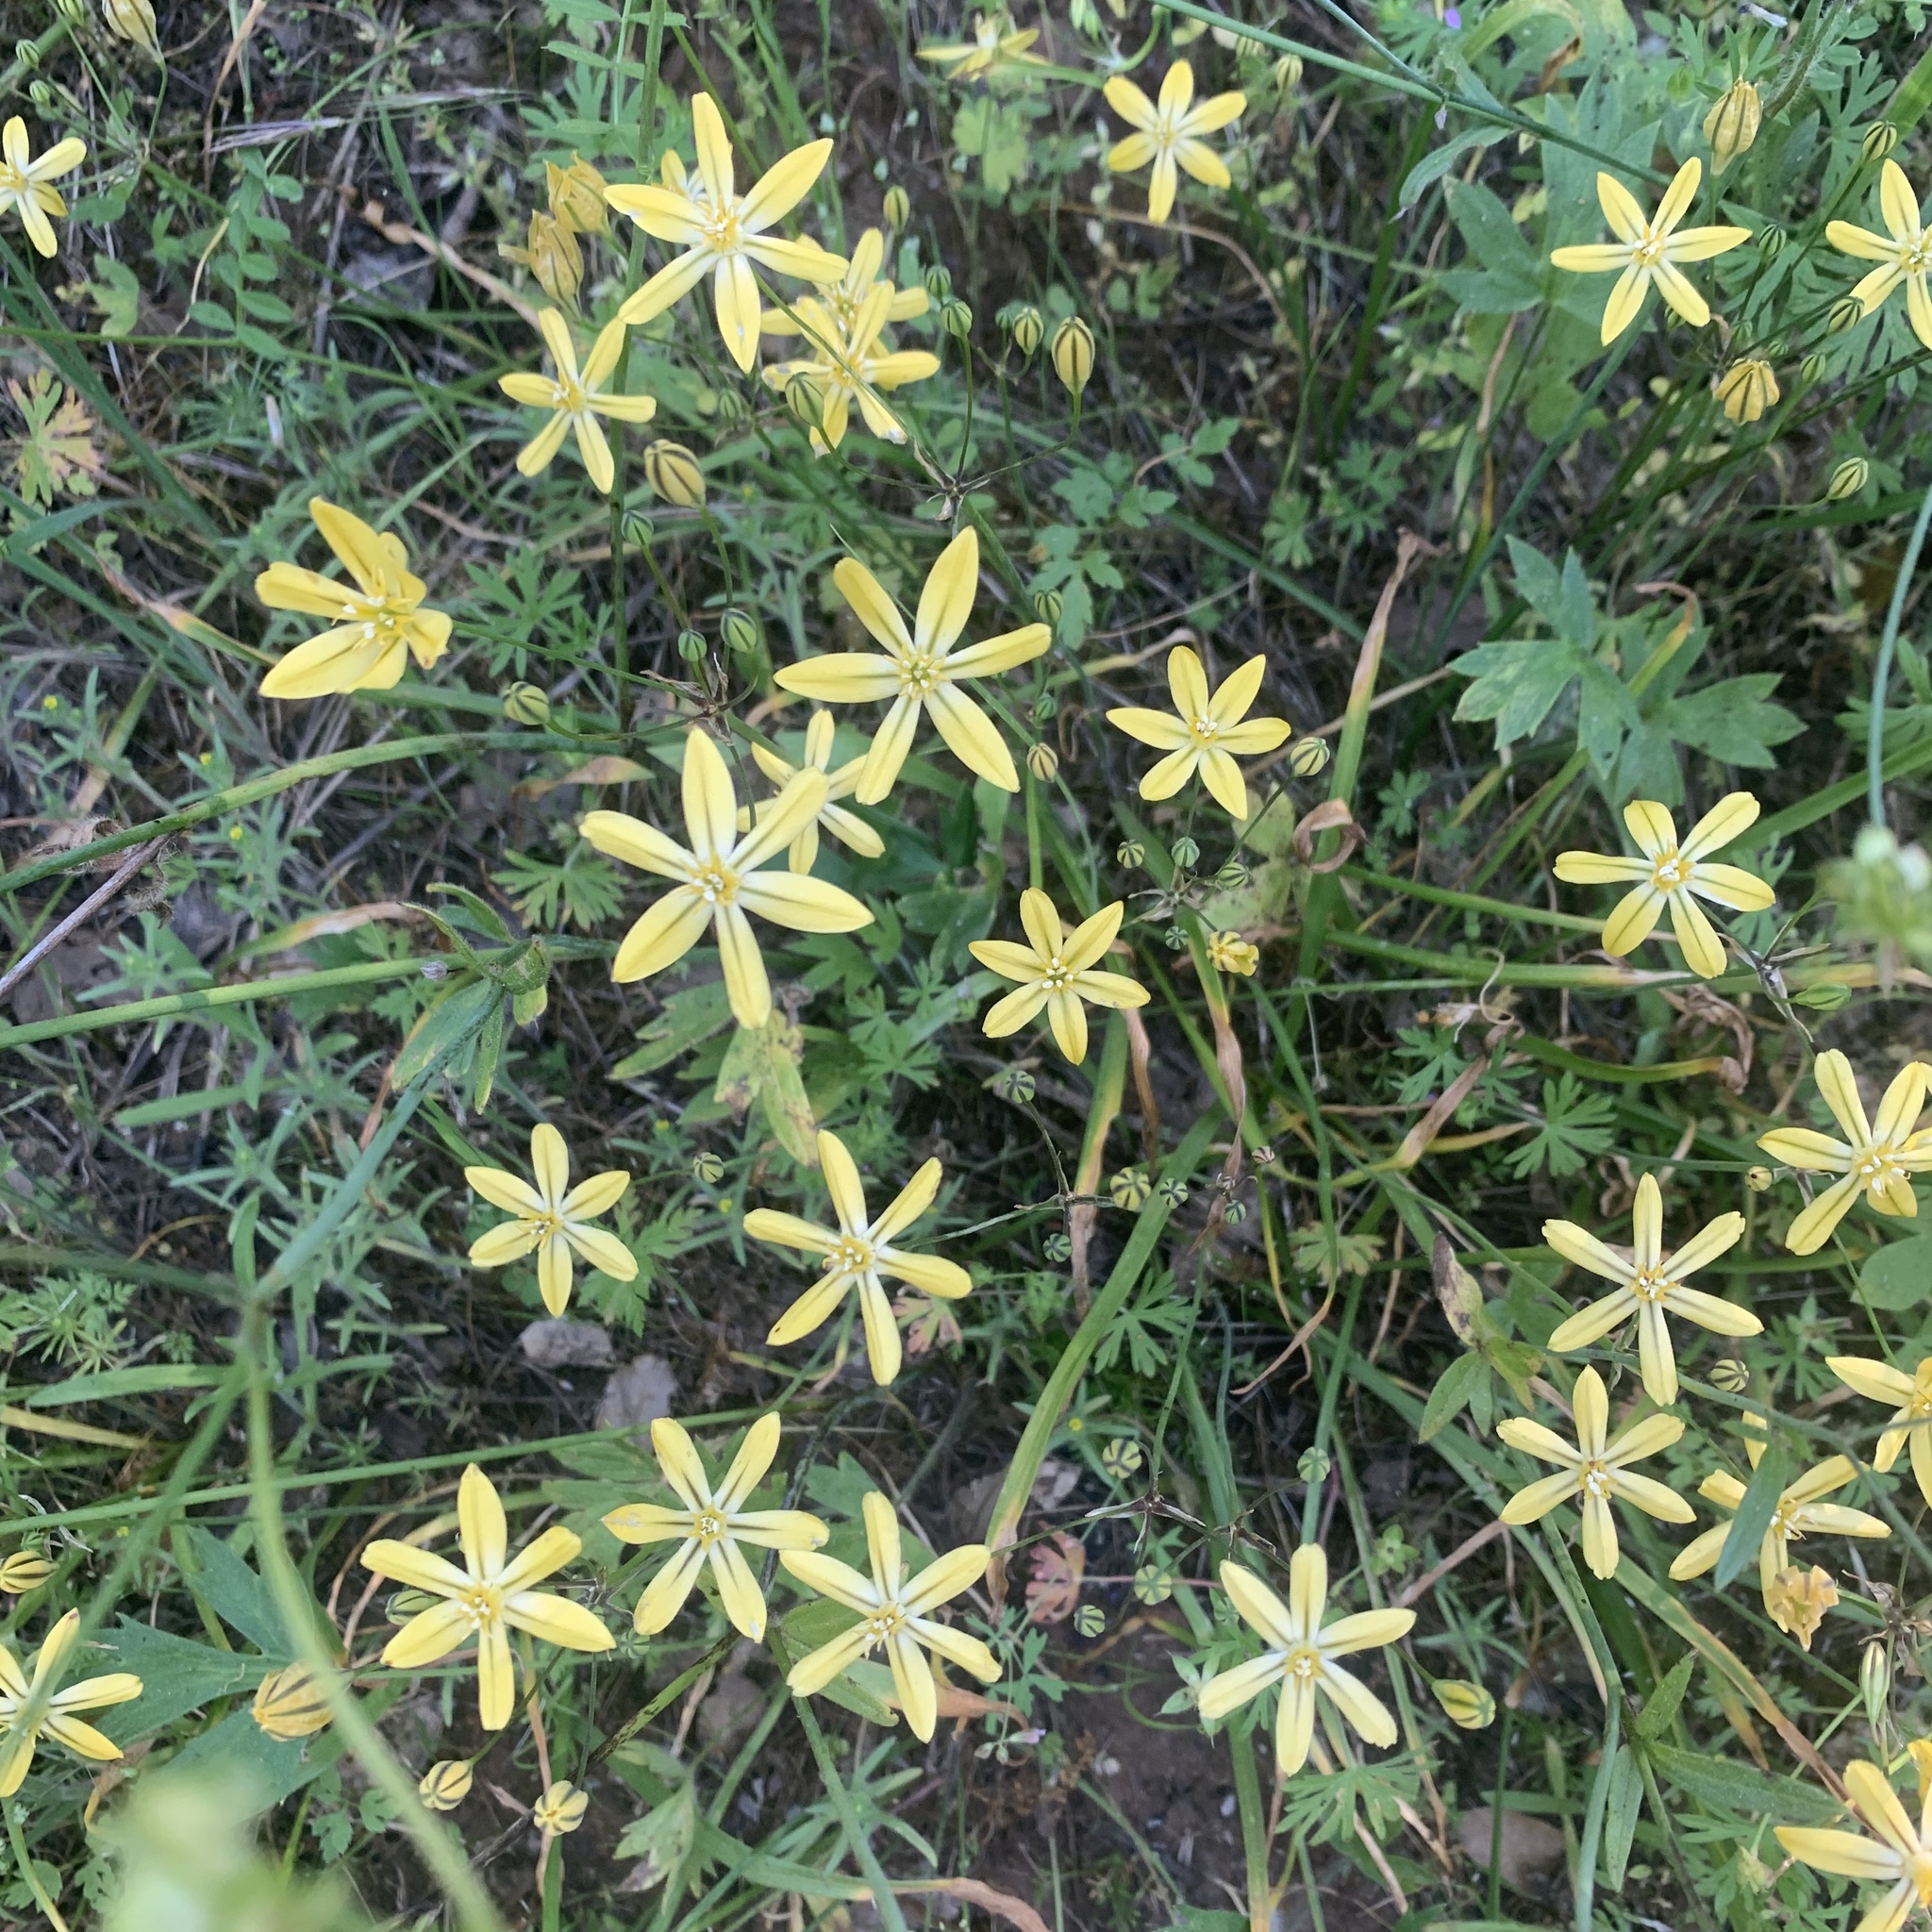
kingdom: Plantae
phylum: Tracheophyta
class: Liliopsida
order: Asparagales
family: Asparagaceae
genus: Triteleia
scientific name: Triteleia ixioides
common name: Yellow-brodiaea
